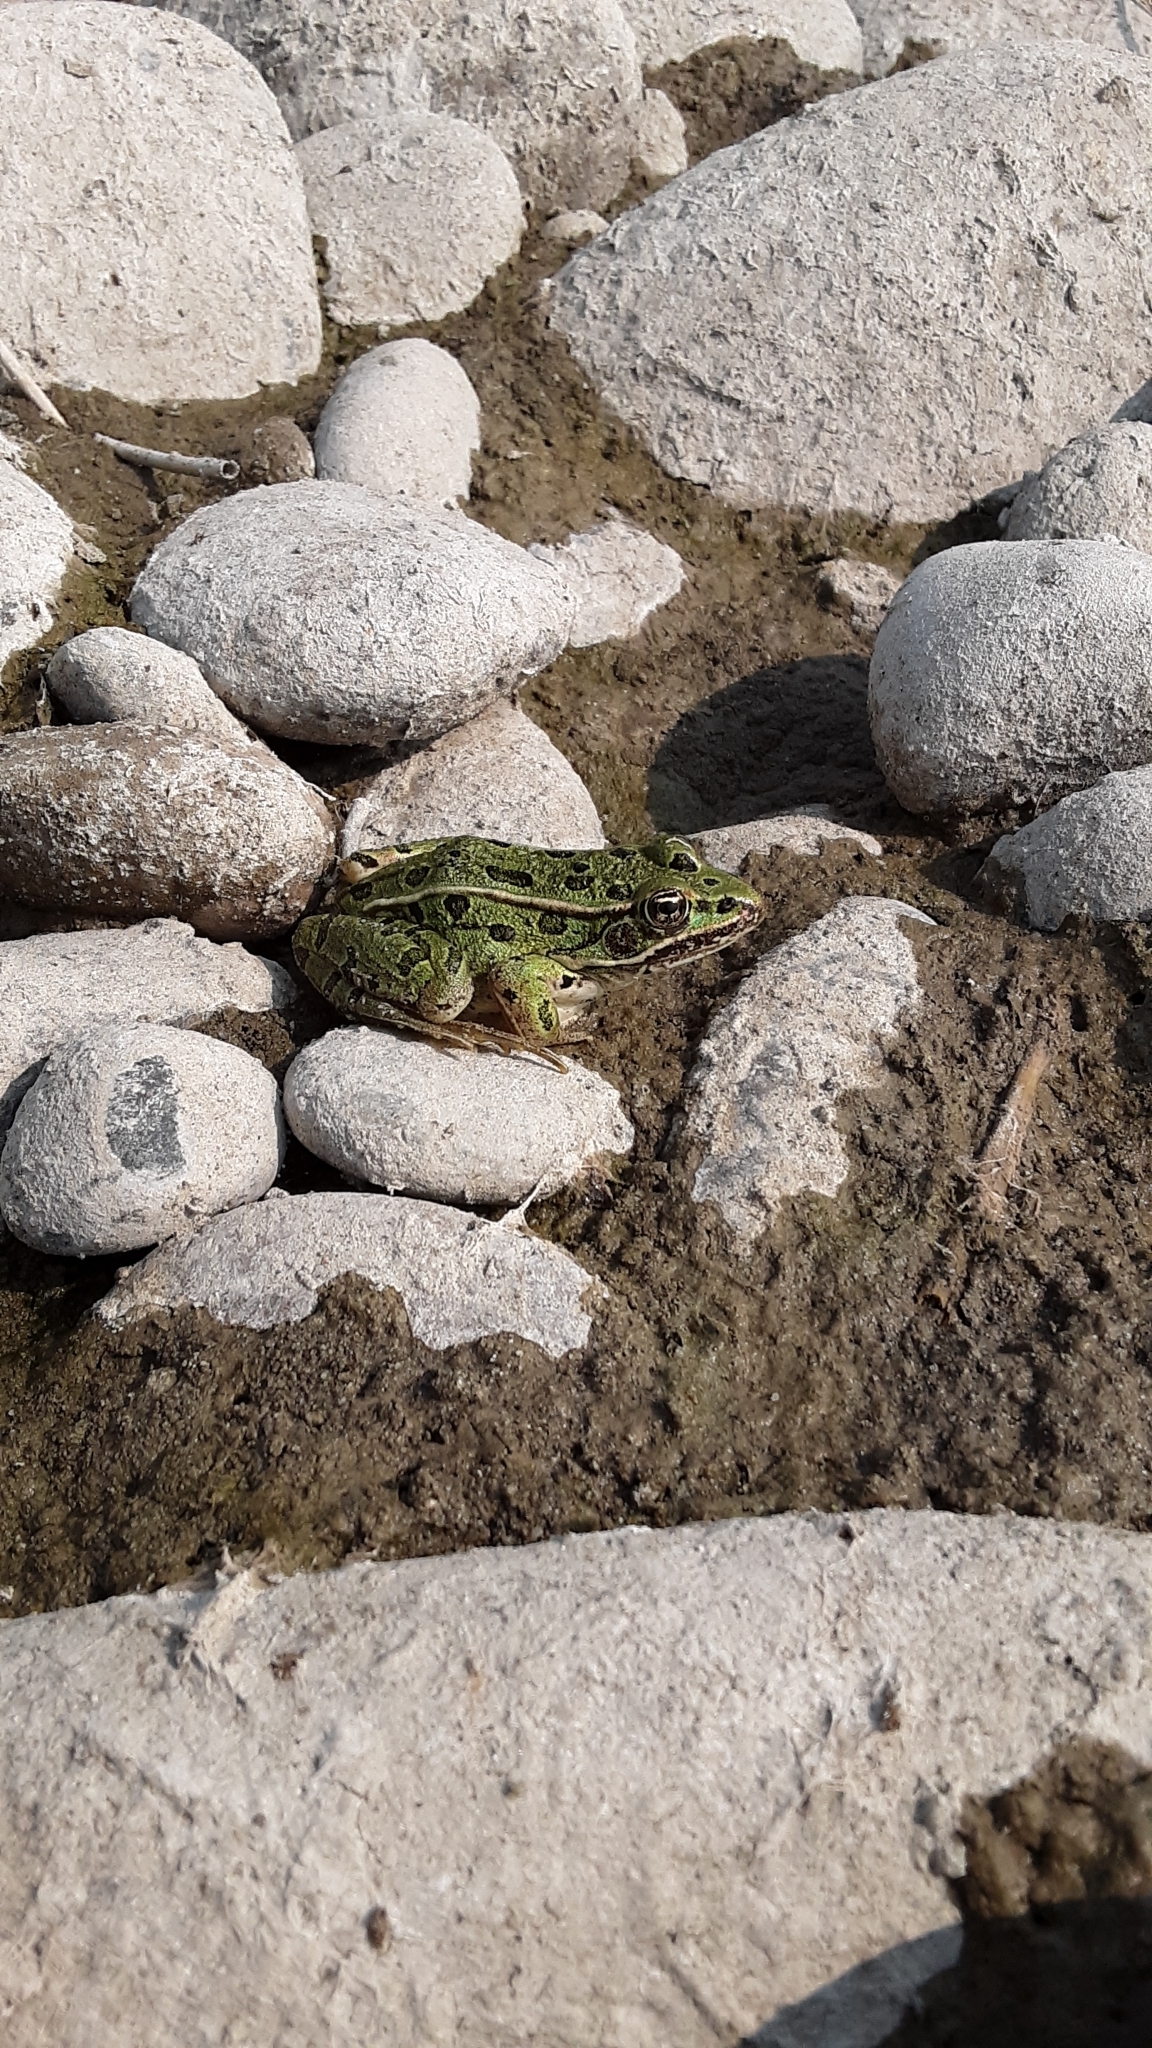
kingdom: Animalia
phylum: Chordata
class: Amphibia
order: Anura
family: Ranidae
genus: Lithobates
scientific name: Lithobates pipiens
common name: Northern leopard frog
